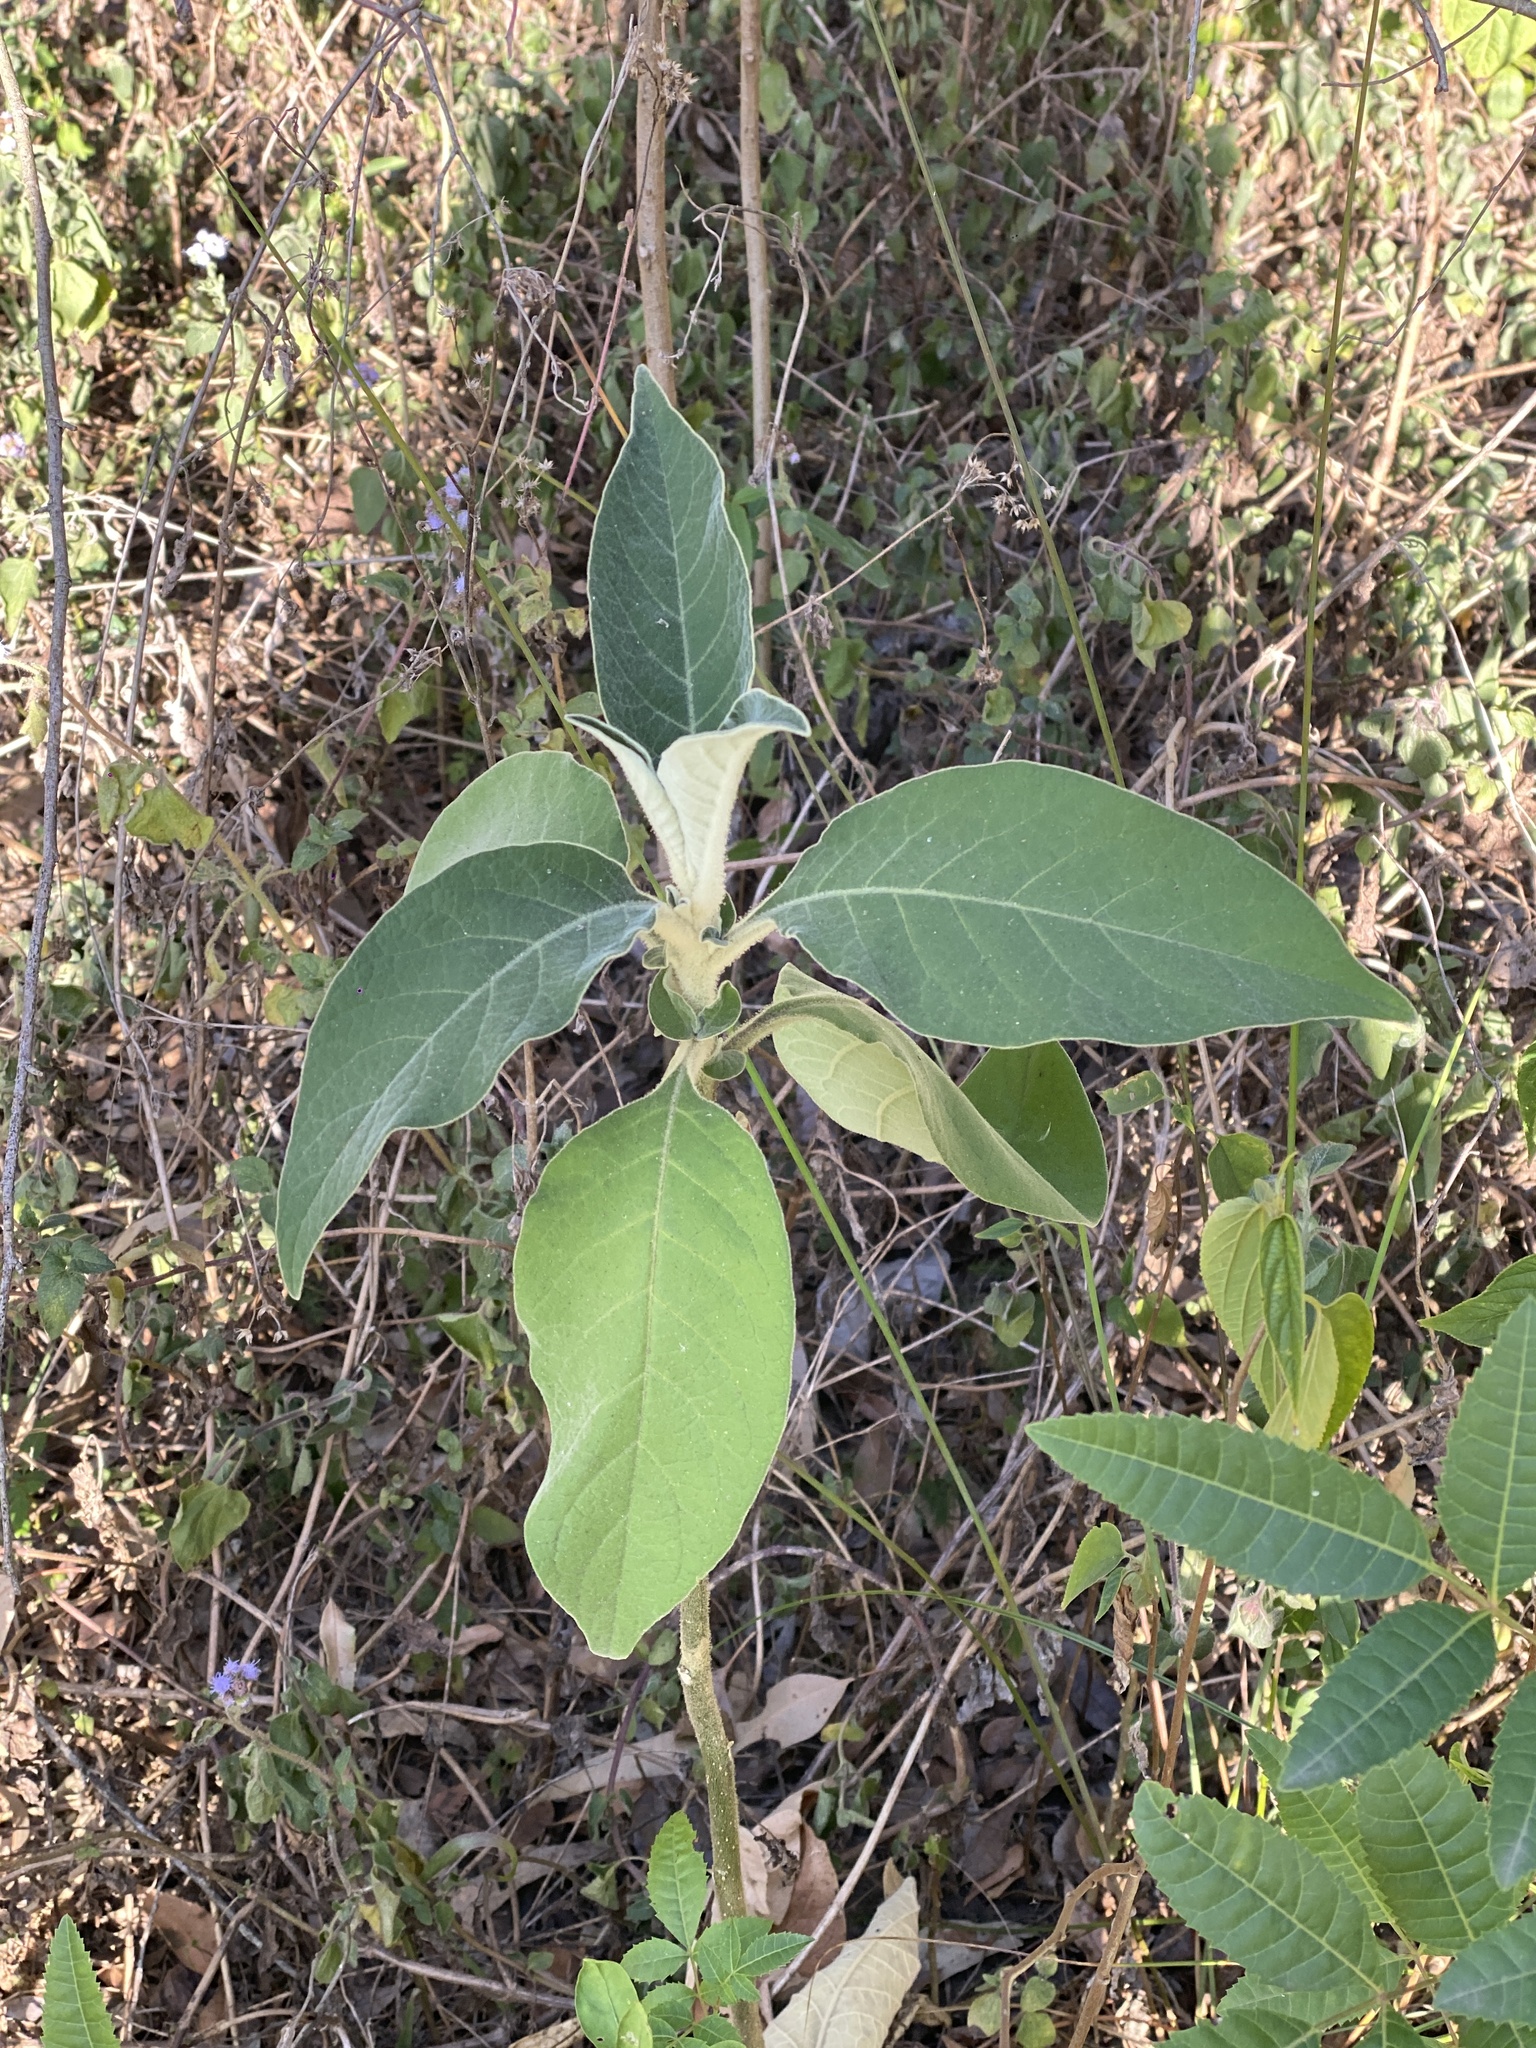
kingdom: Plantae
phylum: Tracheophyta
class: Magnoliopsida
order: Solanales
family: Solanaceae
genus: Solanum
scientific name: Solanum mauritianum
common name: Earleaf nightshade
